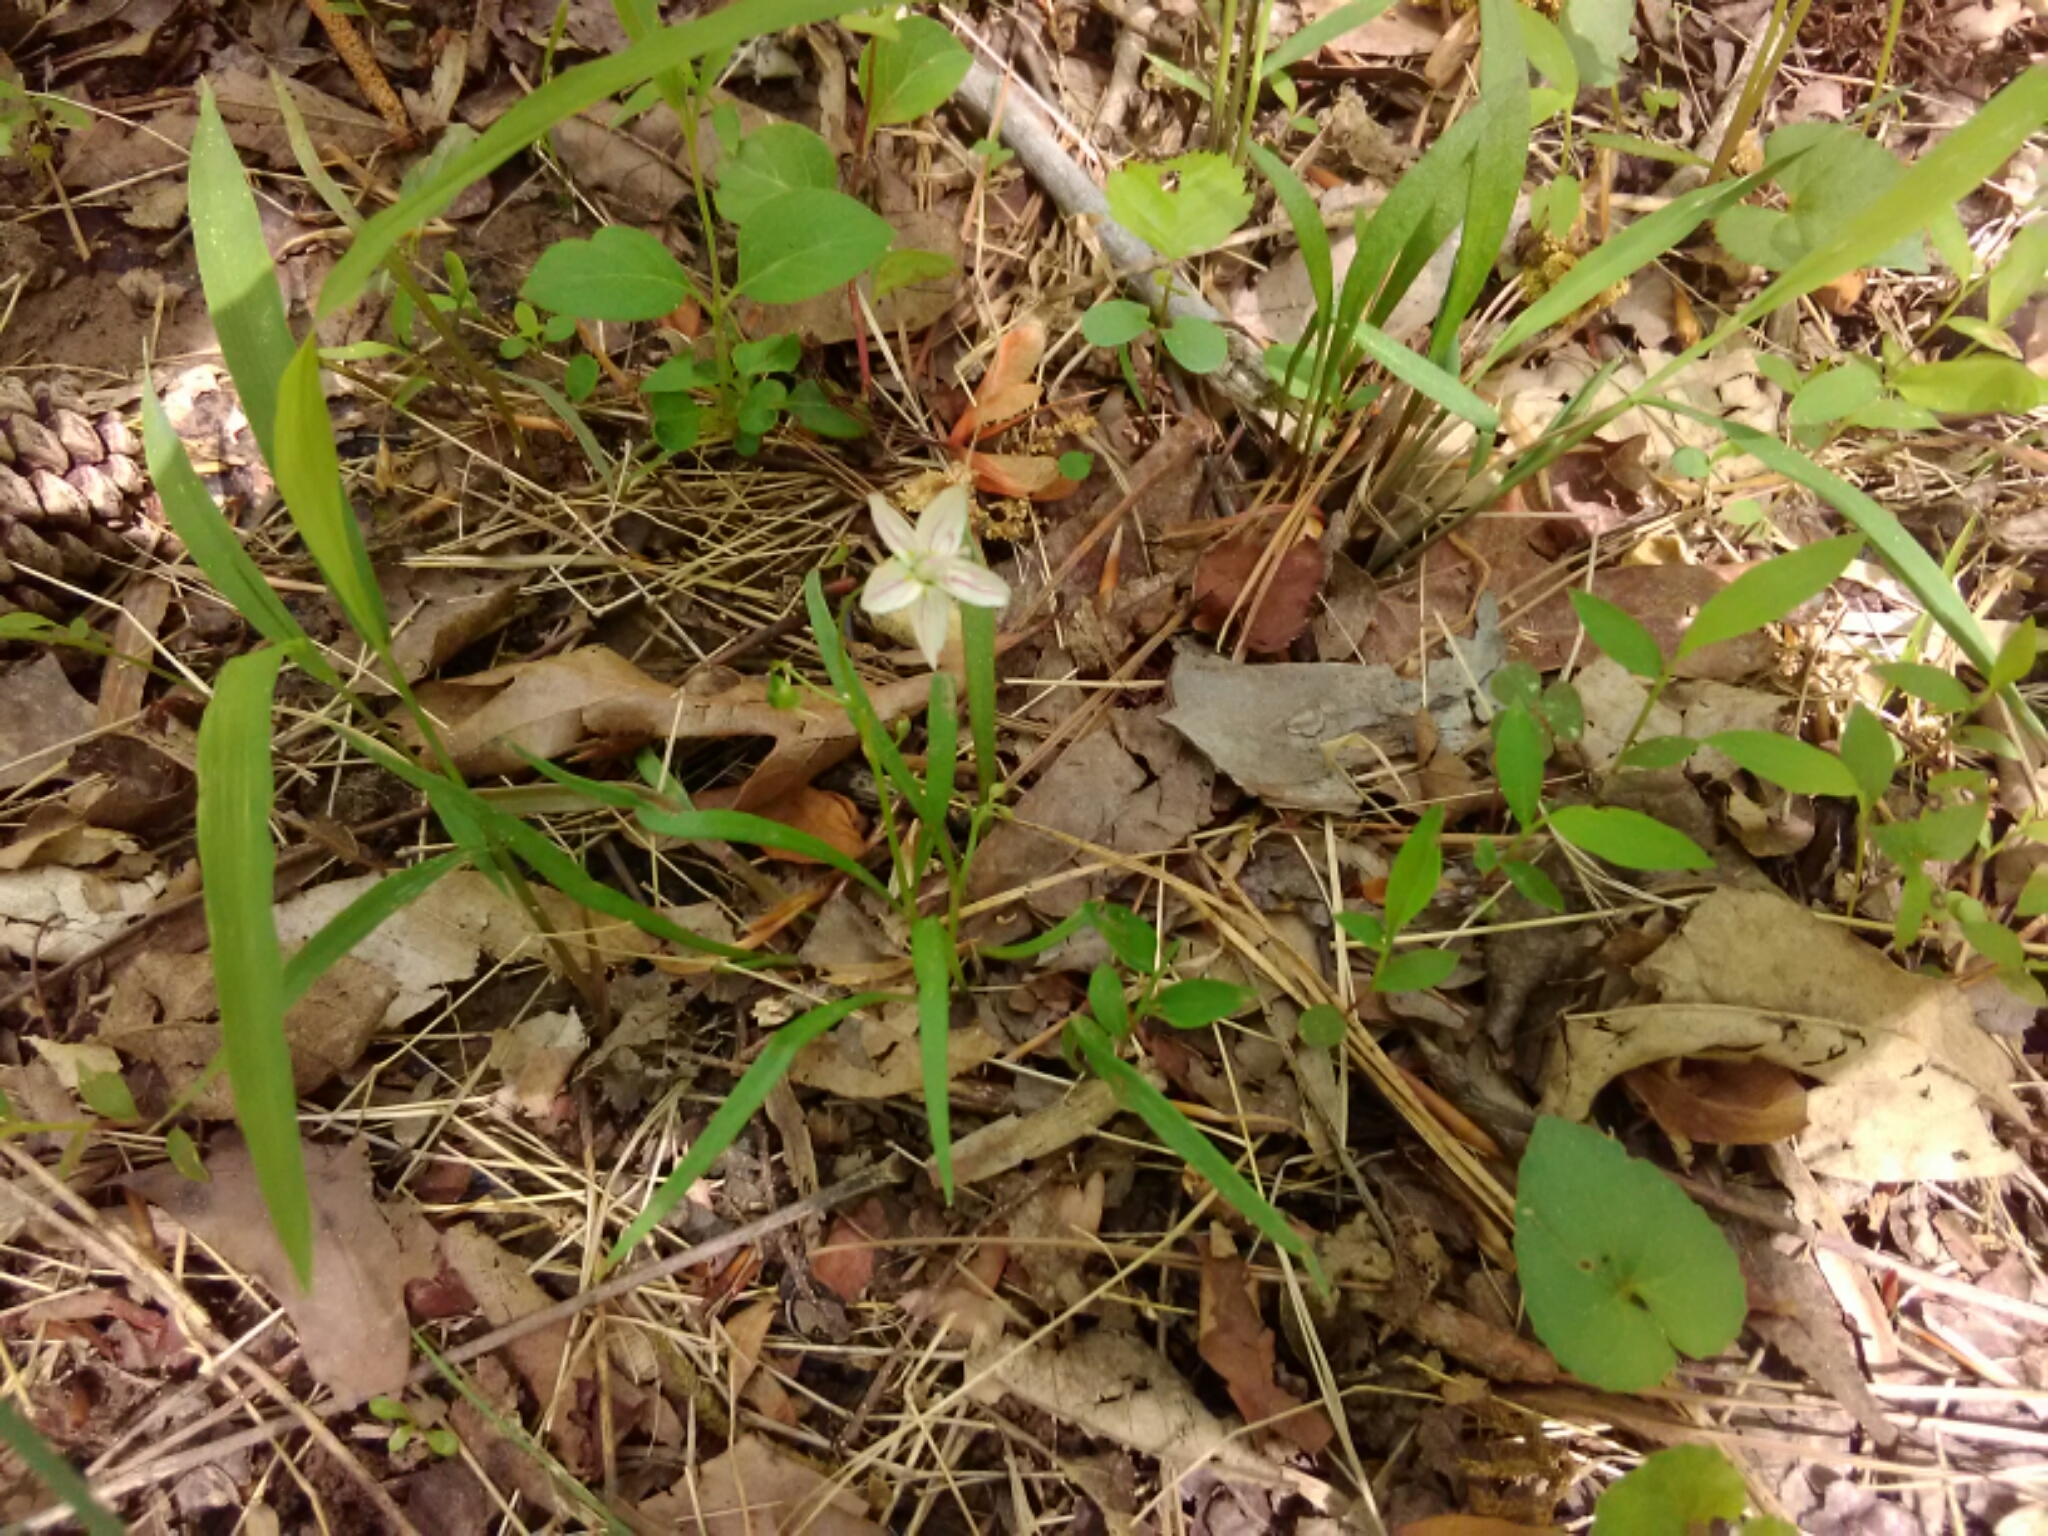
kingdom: Plantae
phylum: Tracheophyta
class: Magnoliopsida
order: Caryophyllales
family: Montiaceae
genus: Claytonia
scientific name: Claytonia virginica
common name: Virginia springbeauty
